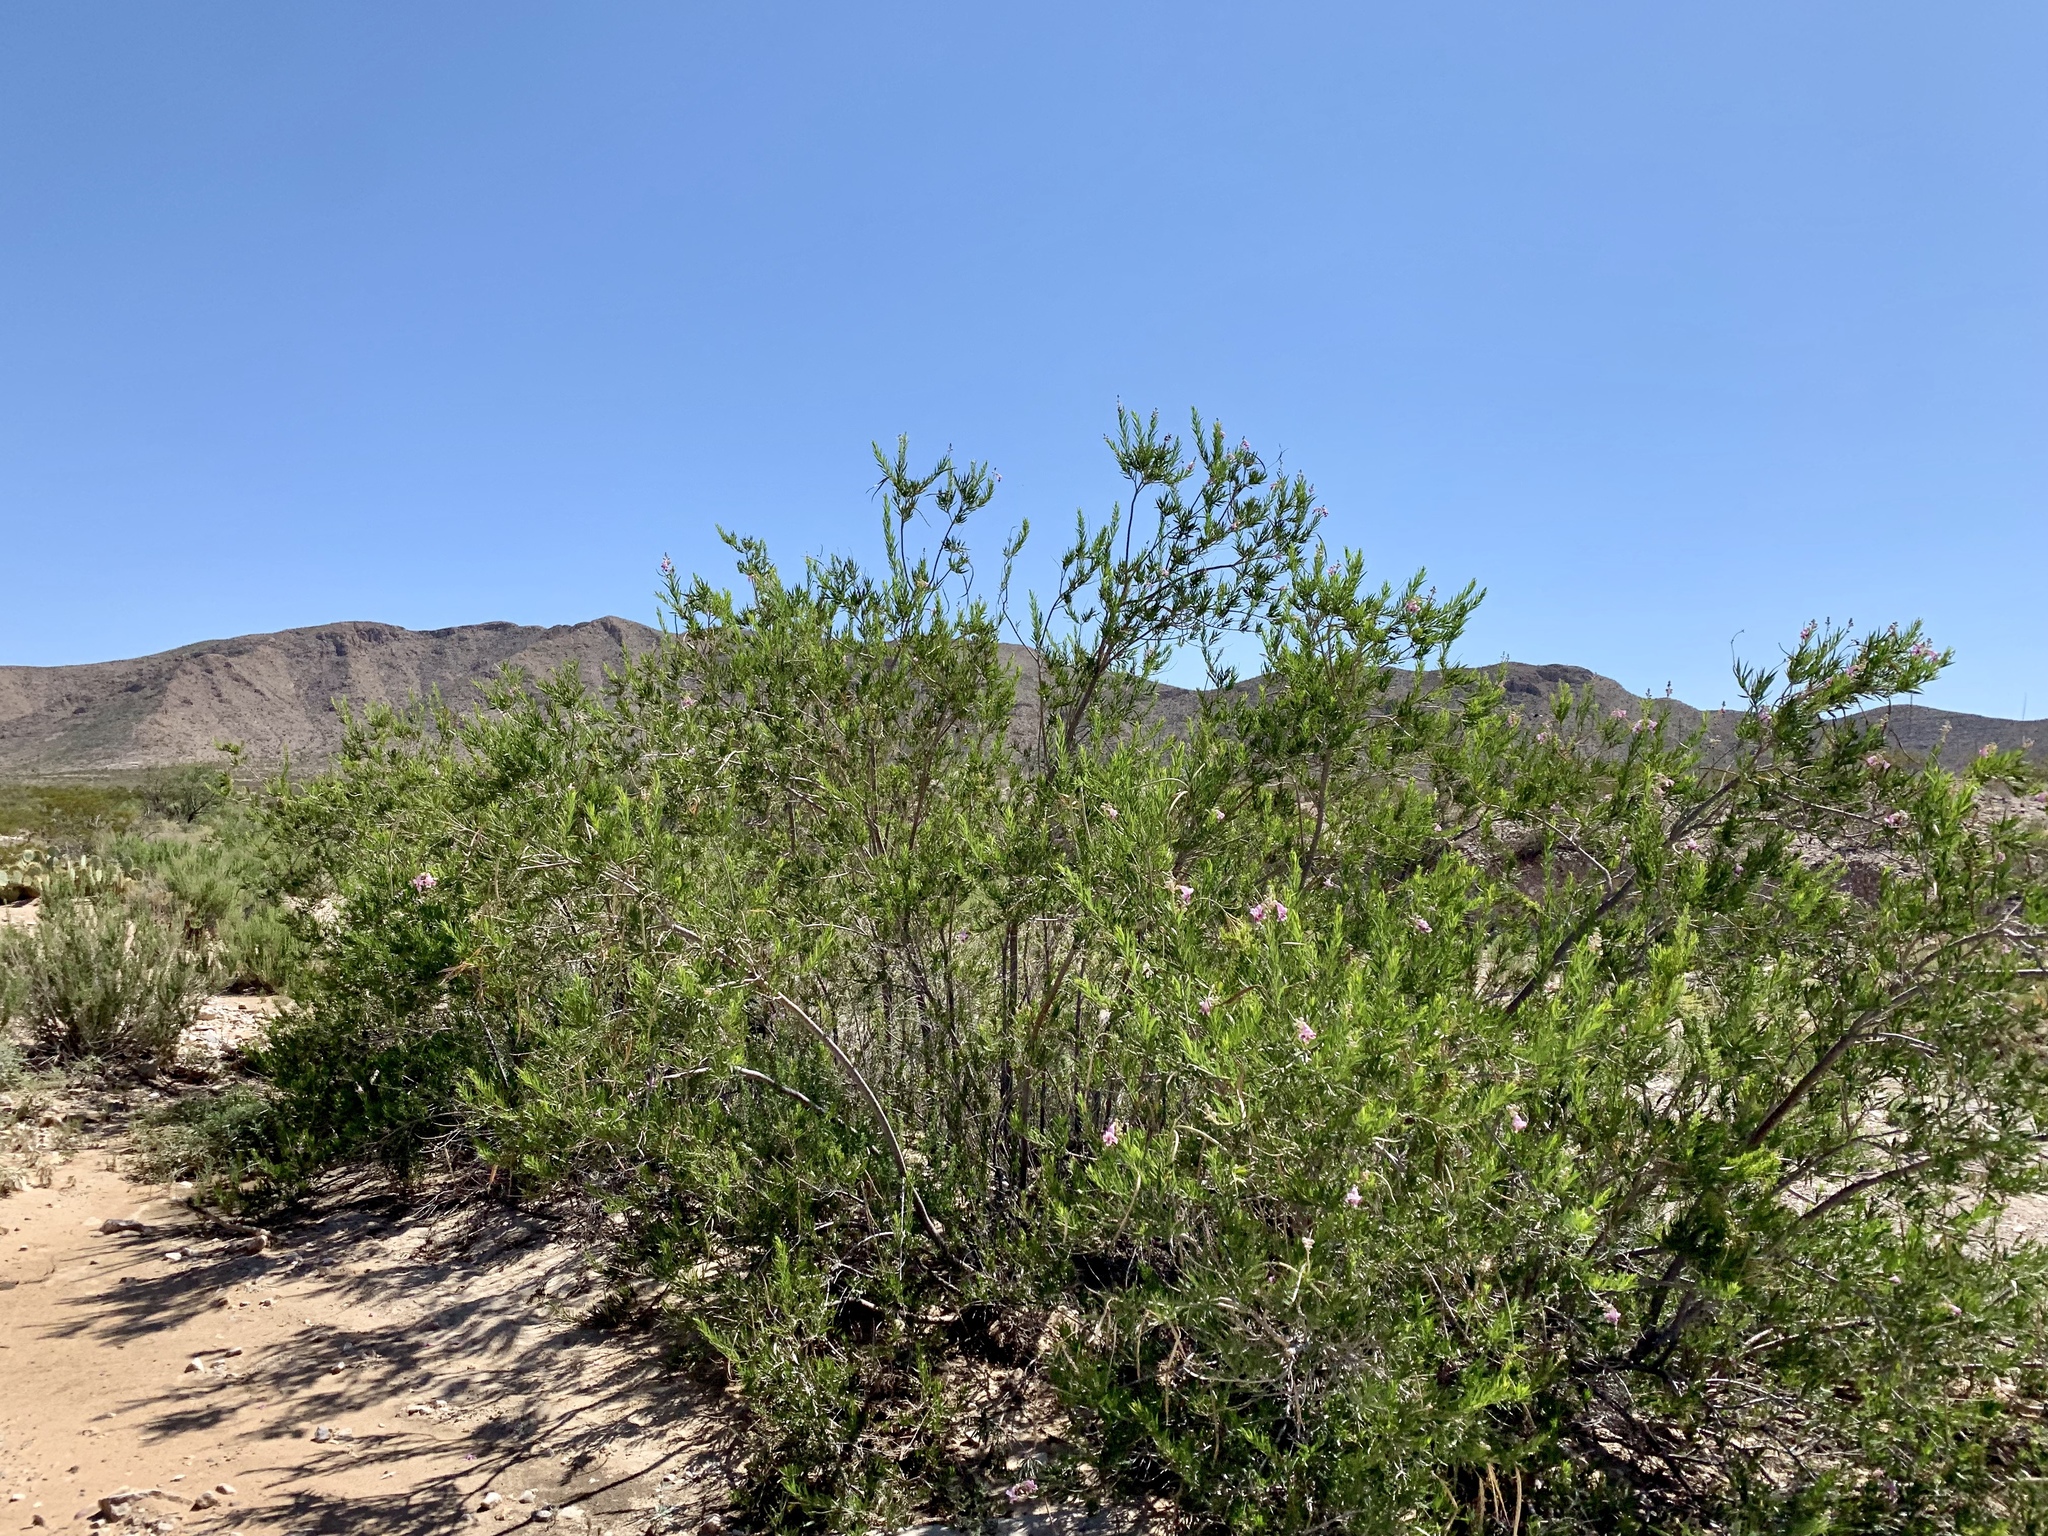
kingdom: Plantae
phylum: Tracheophyta
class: Magnoliopsida
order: Lamiales
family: Bignoniaceae
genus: Chilopsis
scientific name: Chilopsis linearis
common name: Desert-willow
